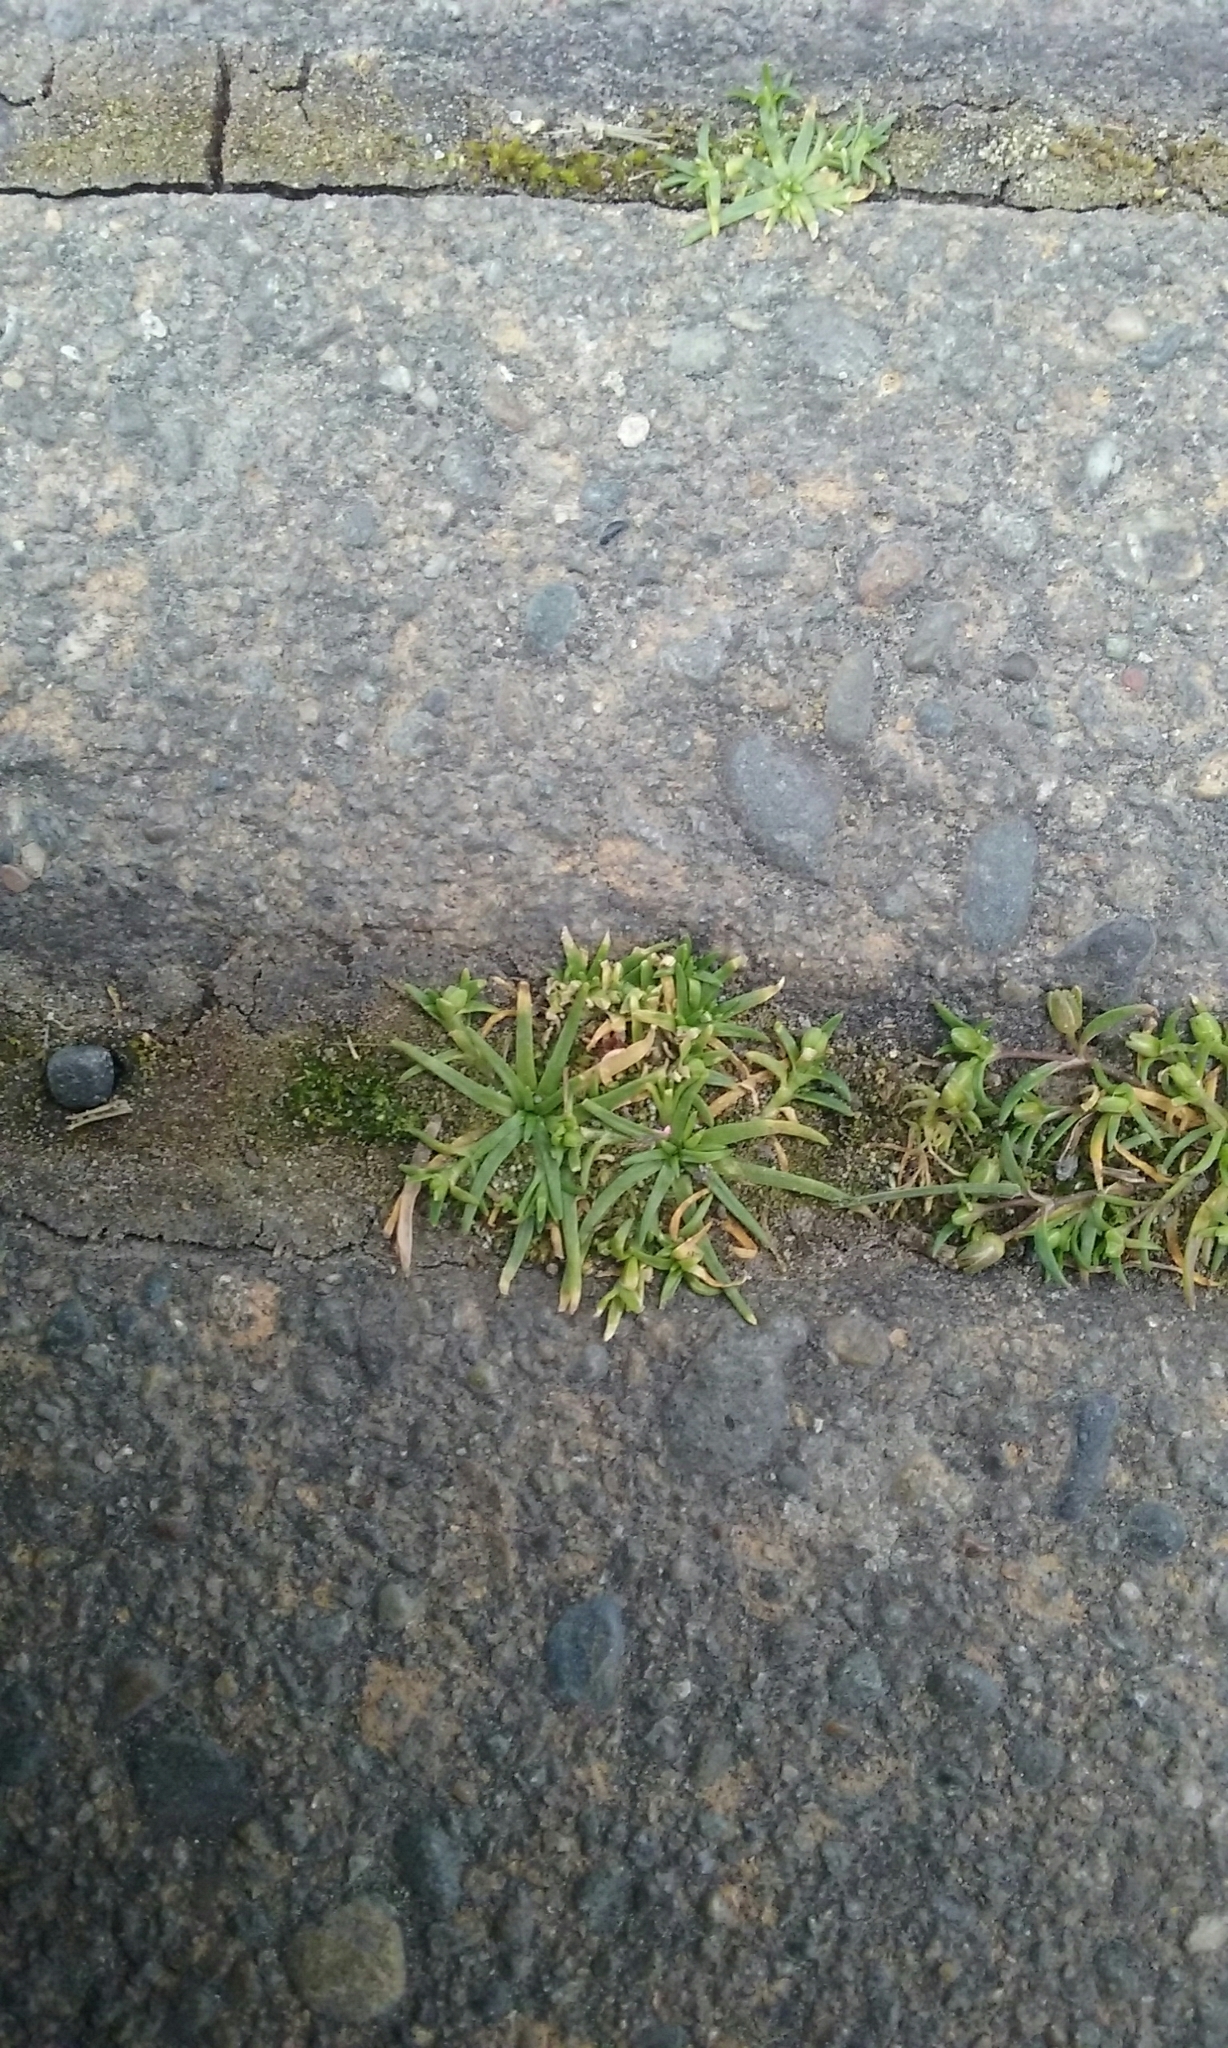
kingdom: Plantae
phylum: Tracheophyta
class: Magnoliopsida
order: Caryophyllales
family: Caryophyllaceae
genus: Sagina
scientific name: Sagina procumbens
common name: Procumbent pearlwort
